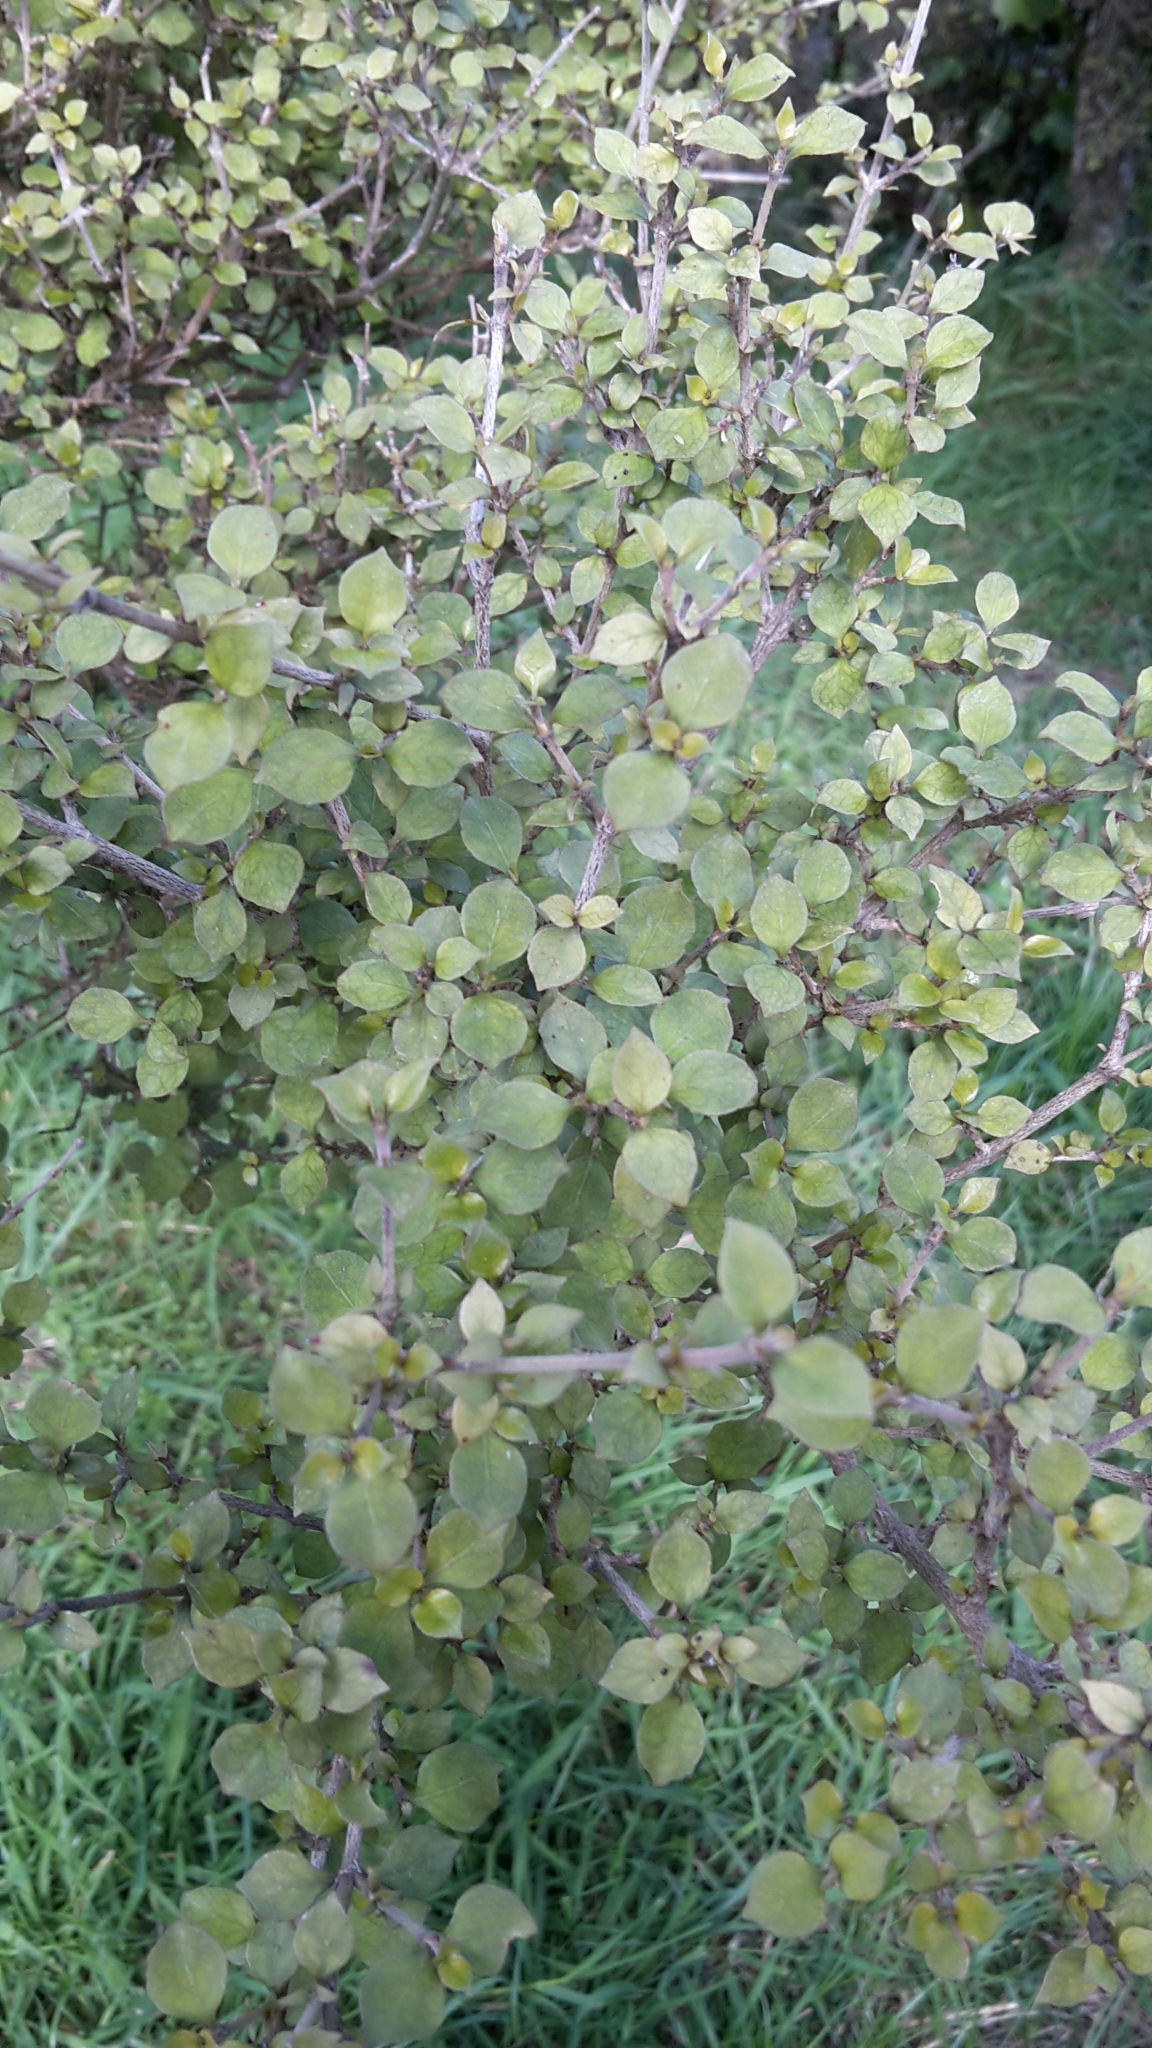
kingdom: Plantae
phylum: Tracheophyta
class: Magnoliopsida
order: Gentianales
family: Rubiaceae
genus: Coprosma
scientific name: Coprosma areolata
